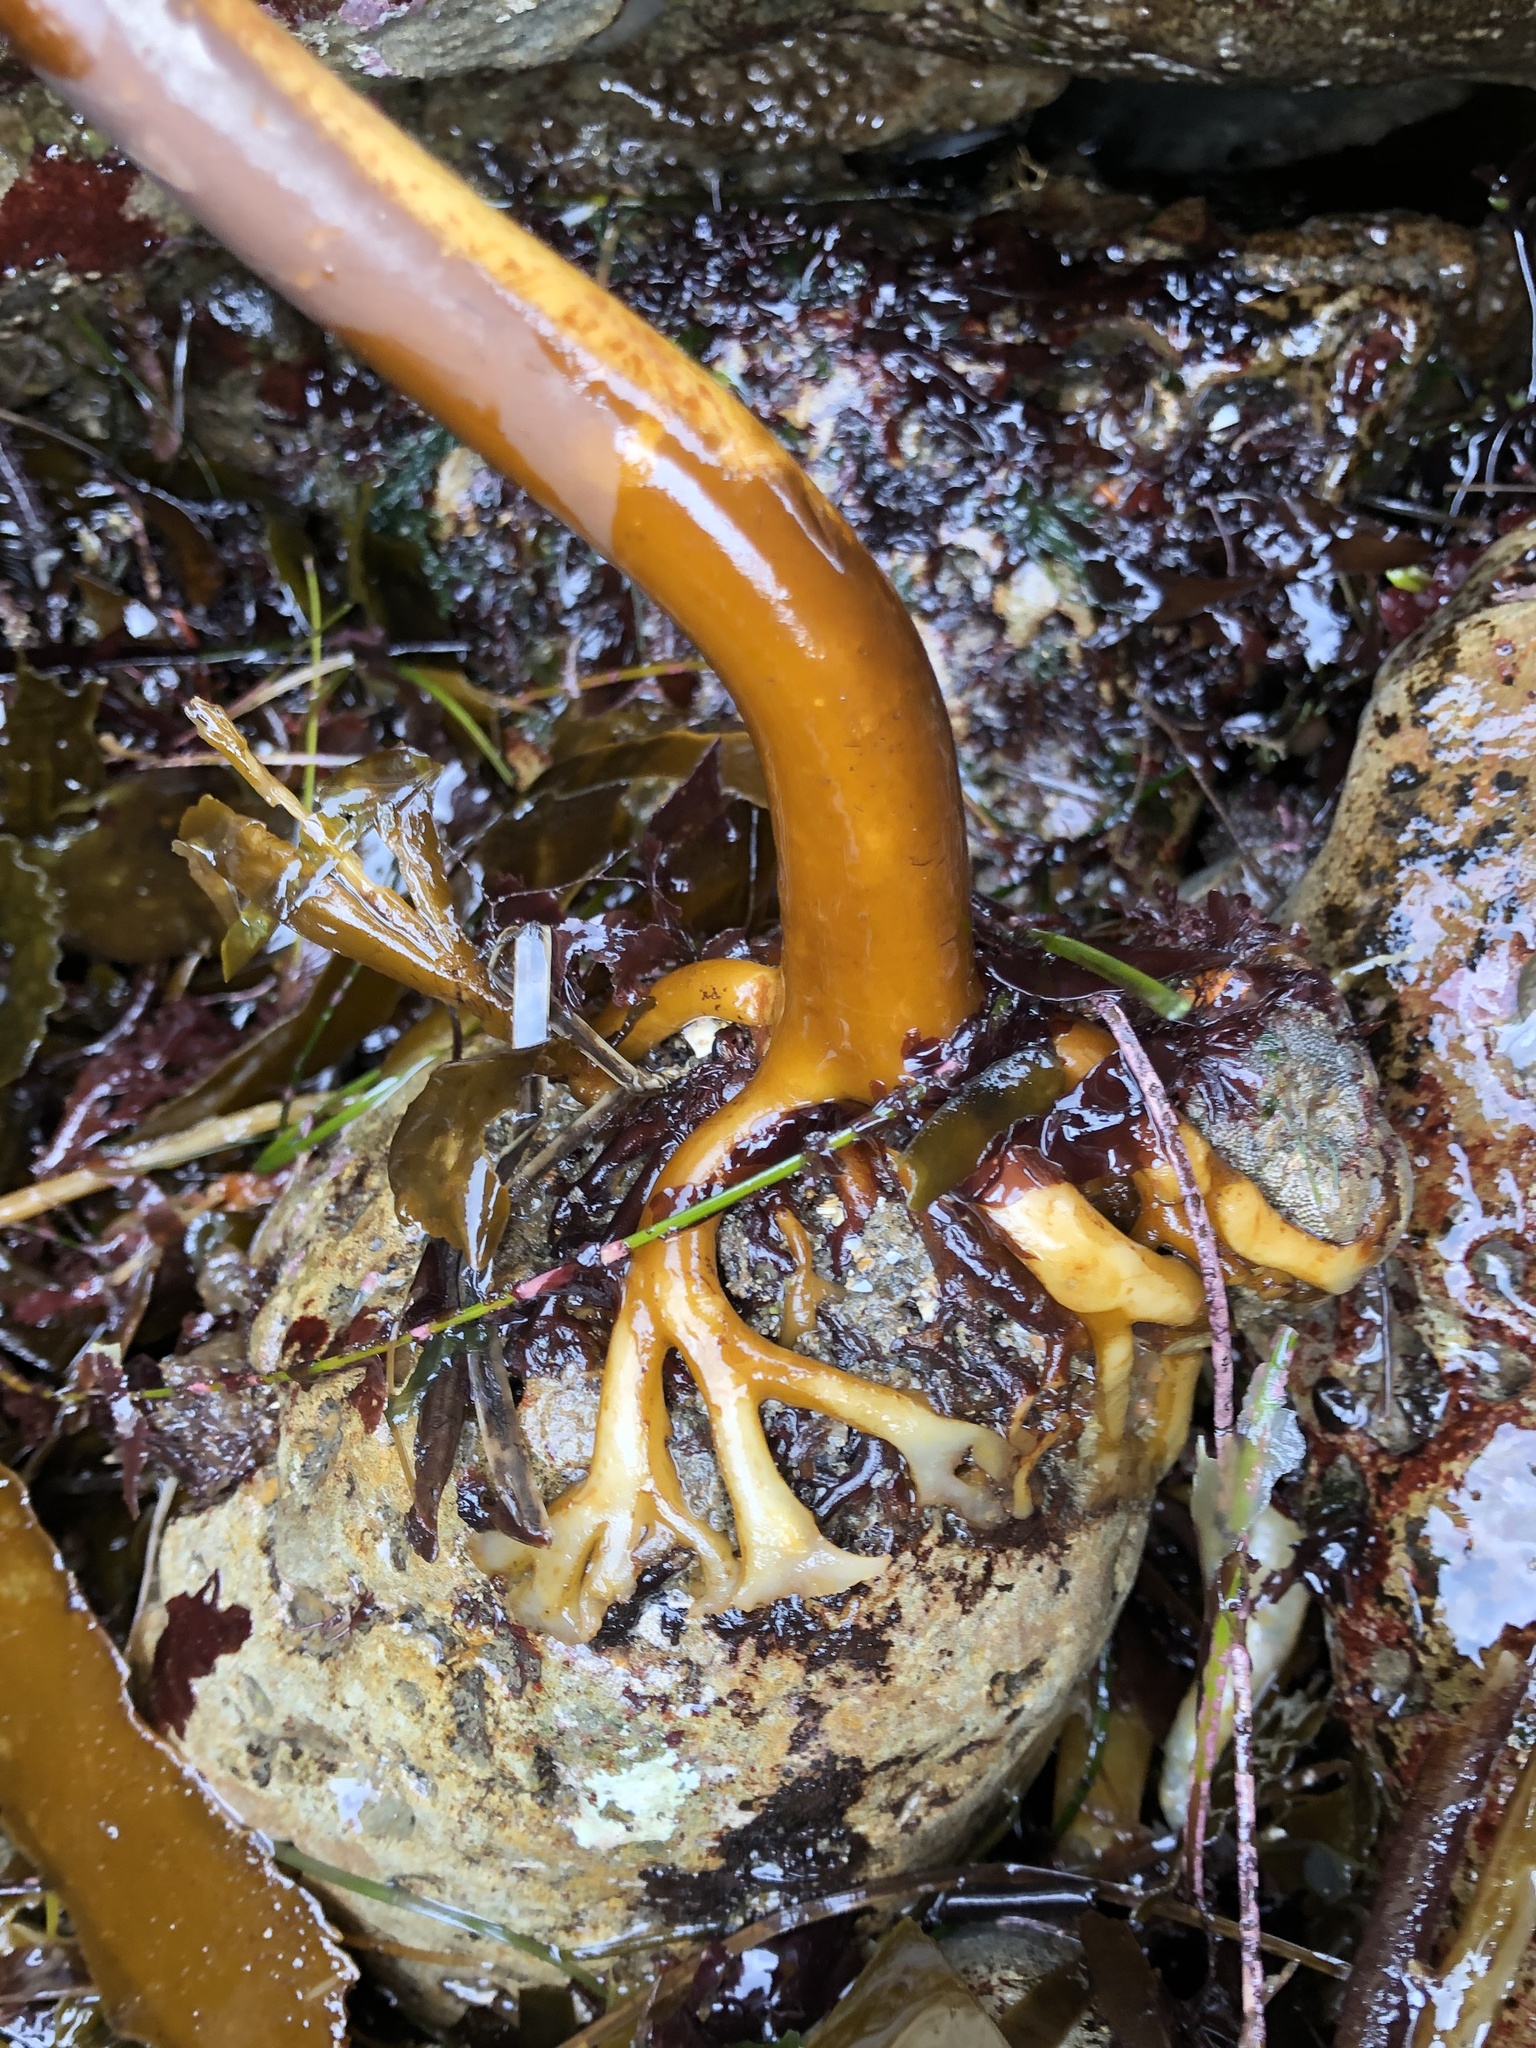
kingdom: Chromista
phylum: Ochrophyta
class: Phaeophyceae
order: Laminariales
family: Alariaceae
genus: Pterygophora
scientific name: Pterygophora californica
